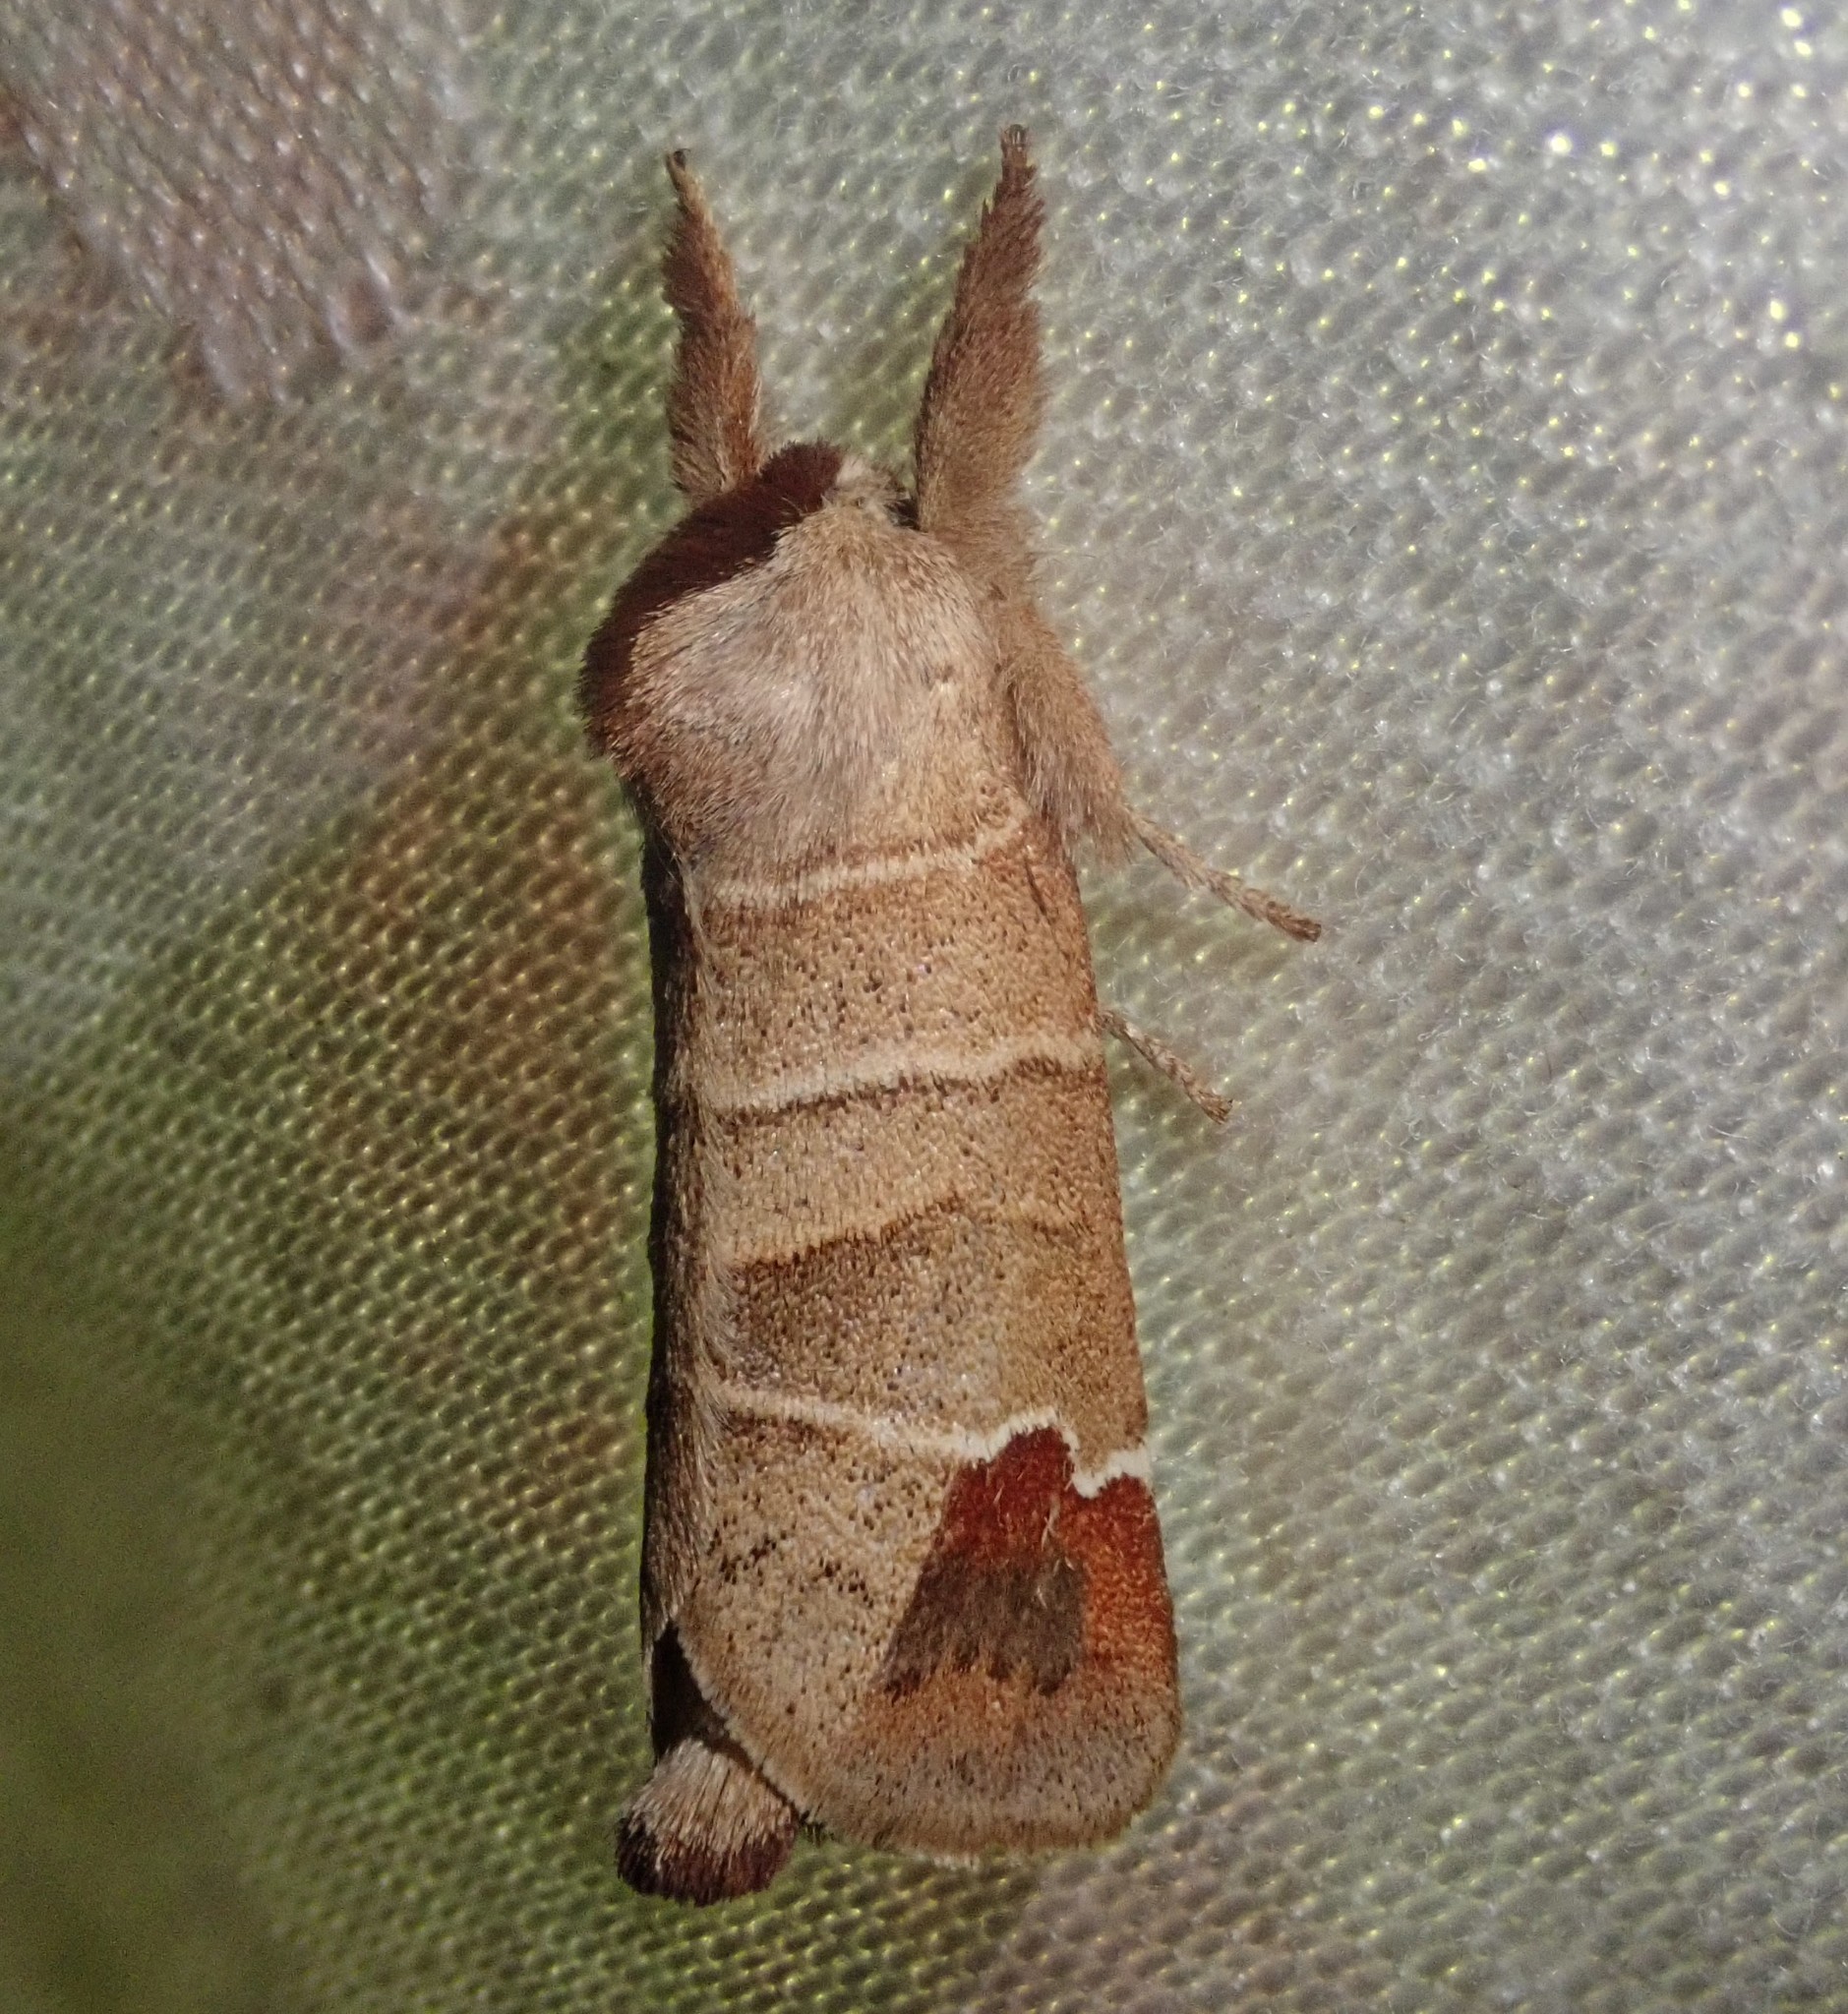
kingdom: Animalia
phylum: Arthropoda
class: Insecta
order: Lepidoptera
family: Notodontidae
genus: Clostera
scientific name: Clostera curtula
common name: Chocolate-tip
